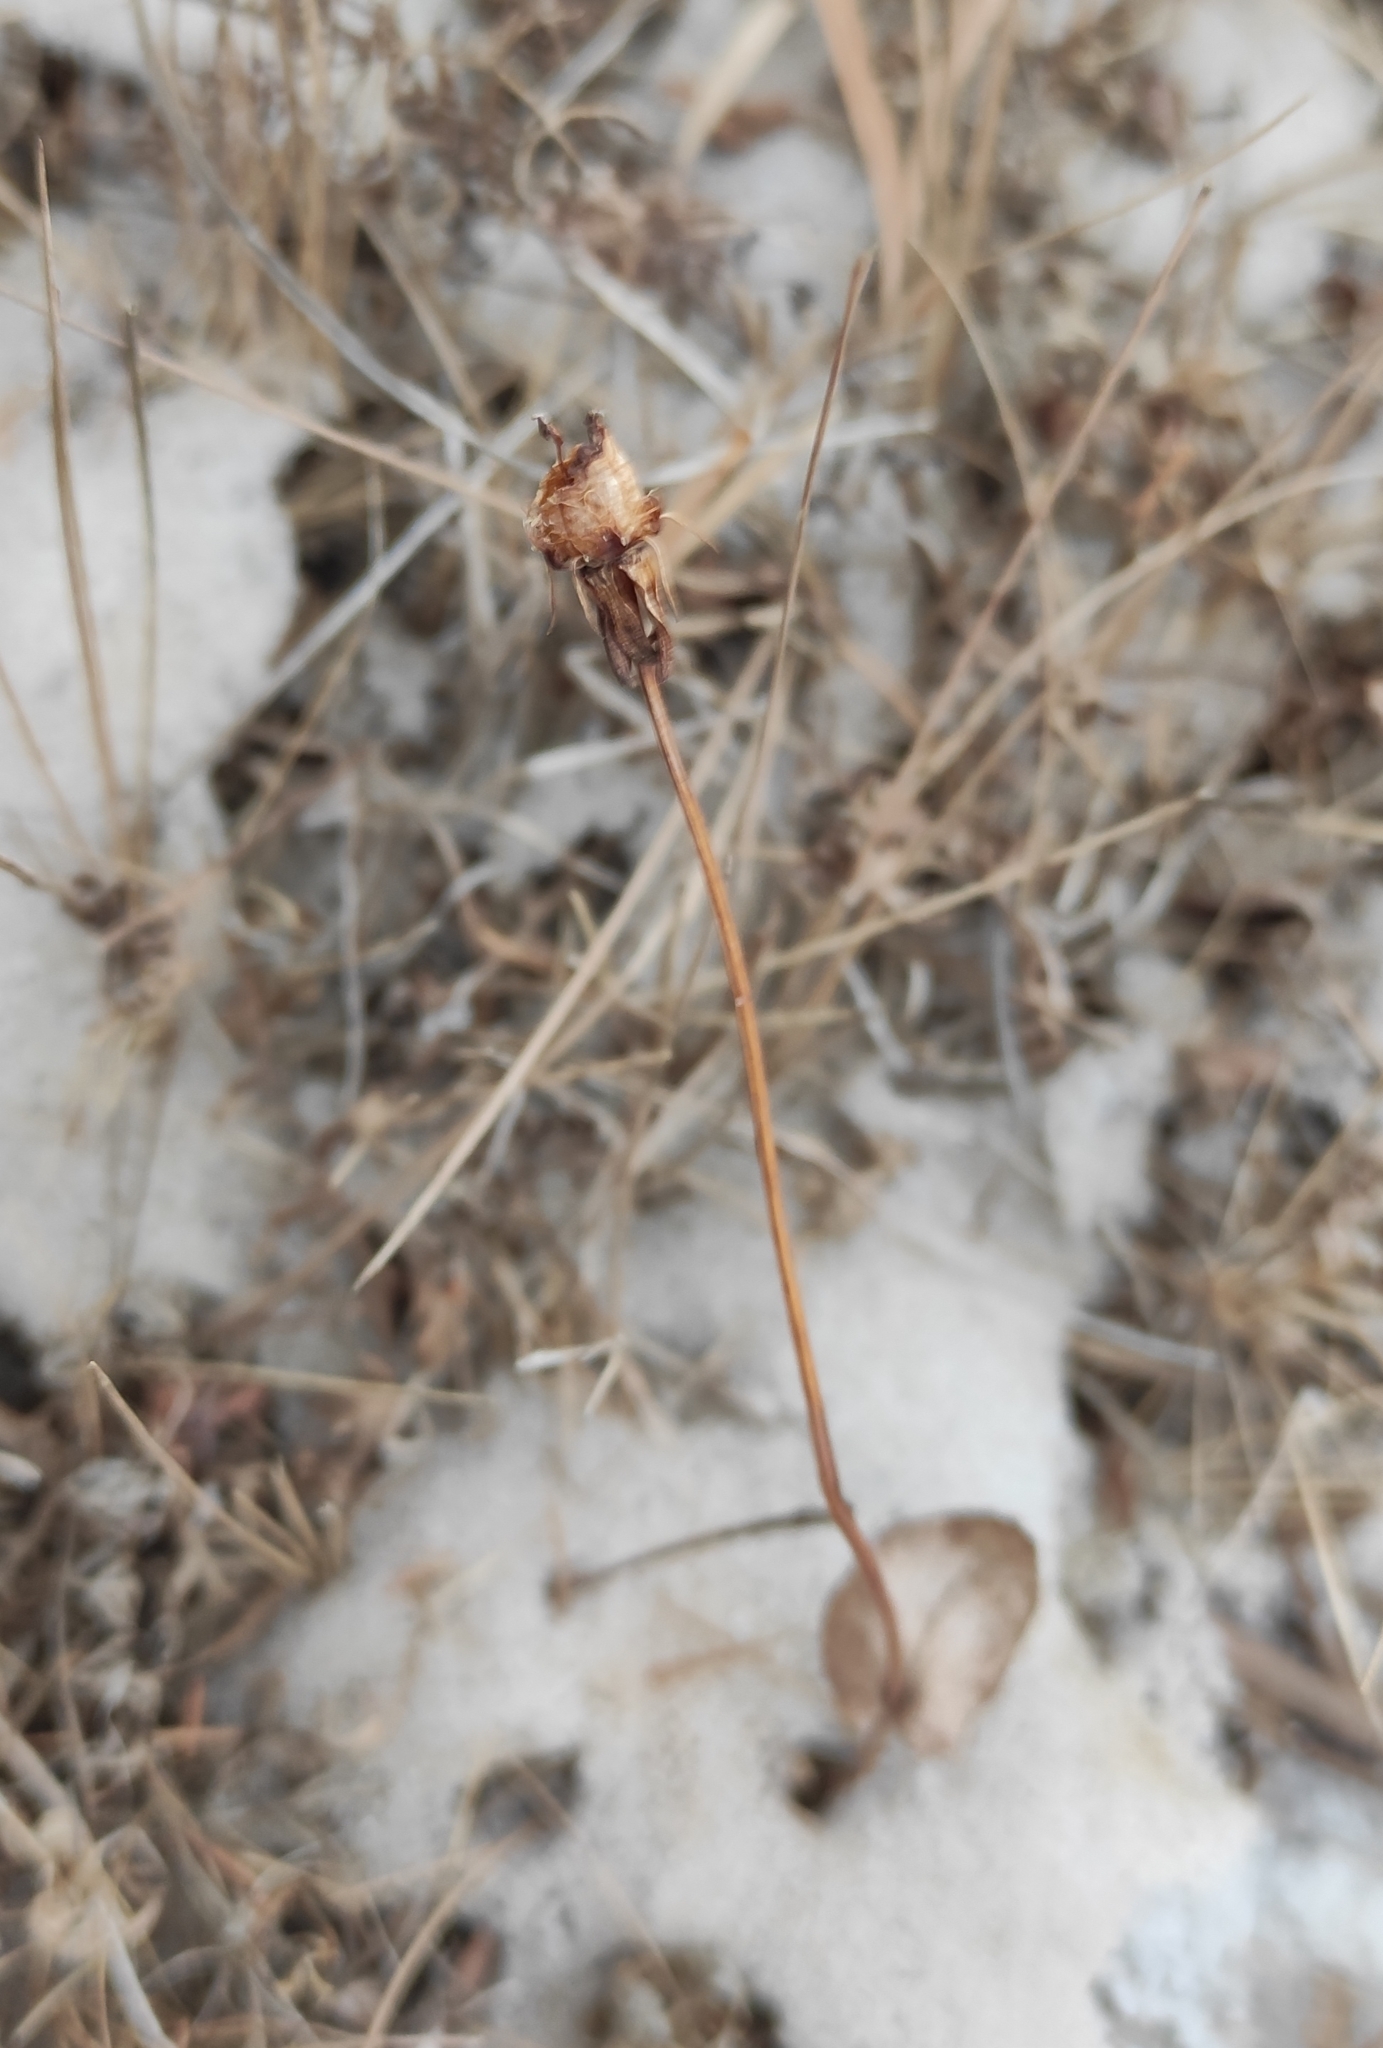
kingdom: Plantae
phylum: Tracheophyta
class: Magnoliopsida
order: Celastrales
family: Parnassiaceae
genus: Parnassia
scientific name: Parnassia palustris
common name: Grass-of-parnassus
